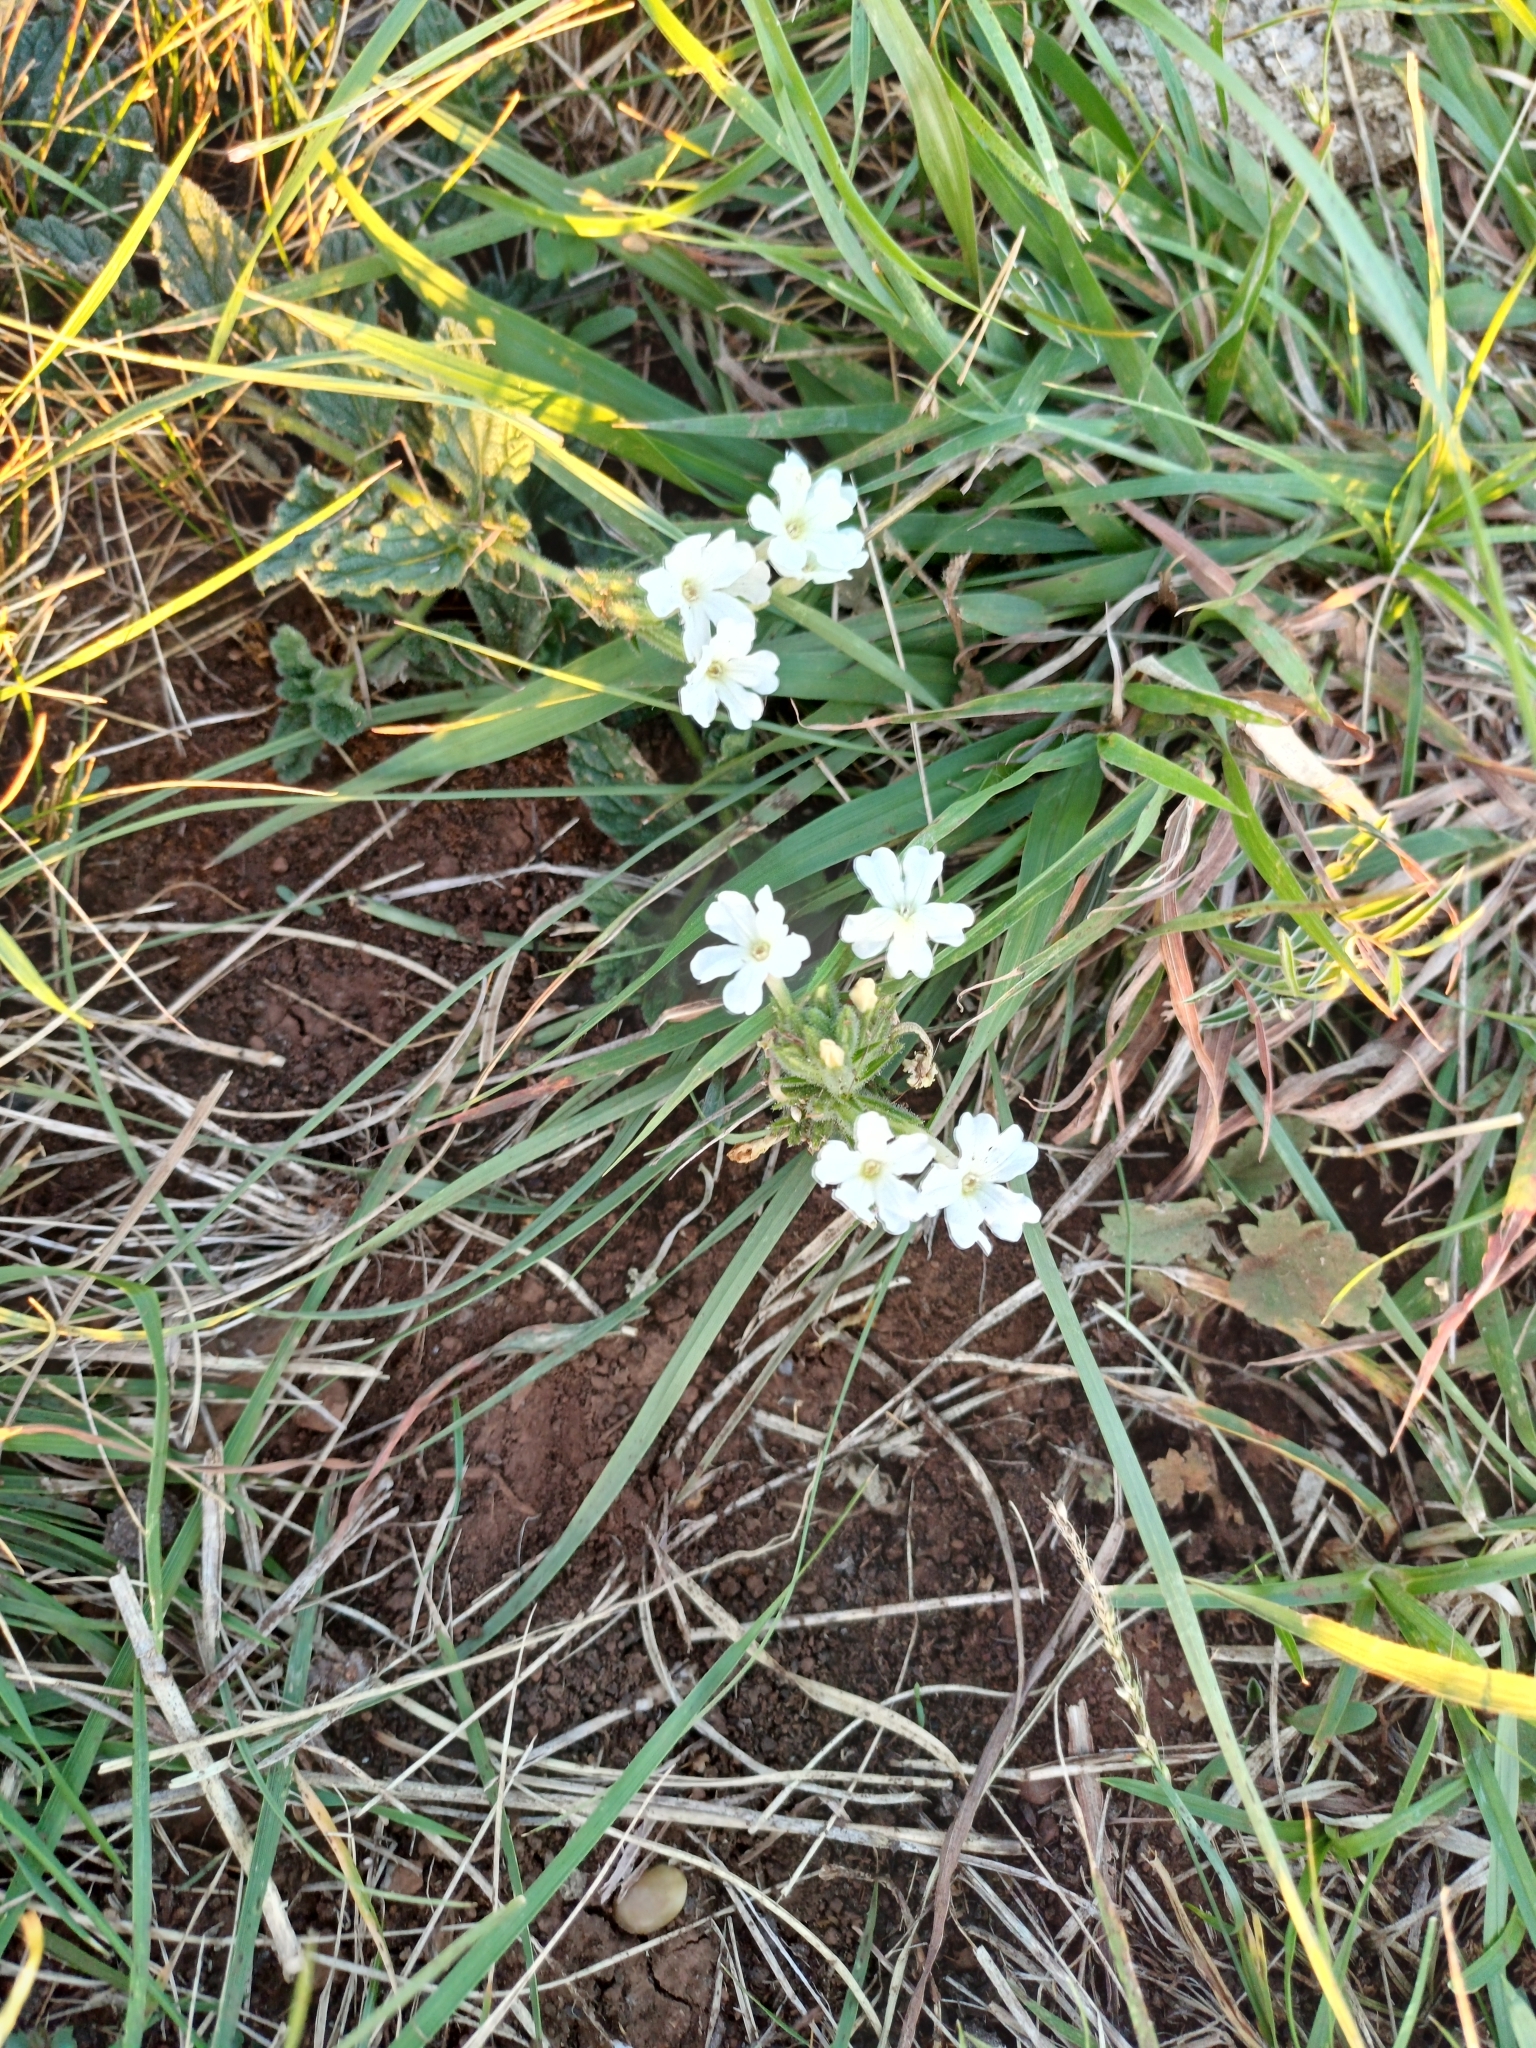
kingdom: Plantae
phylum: Tracheophyta
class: Magnoliopsida
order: Lamiales
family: Verbenaceae
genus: Verbena
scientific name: Verbena platensis
